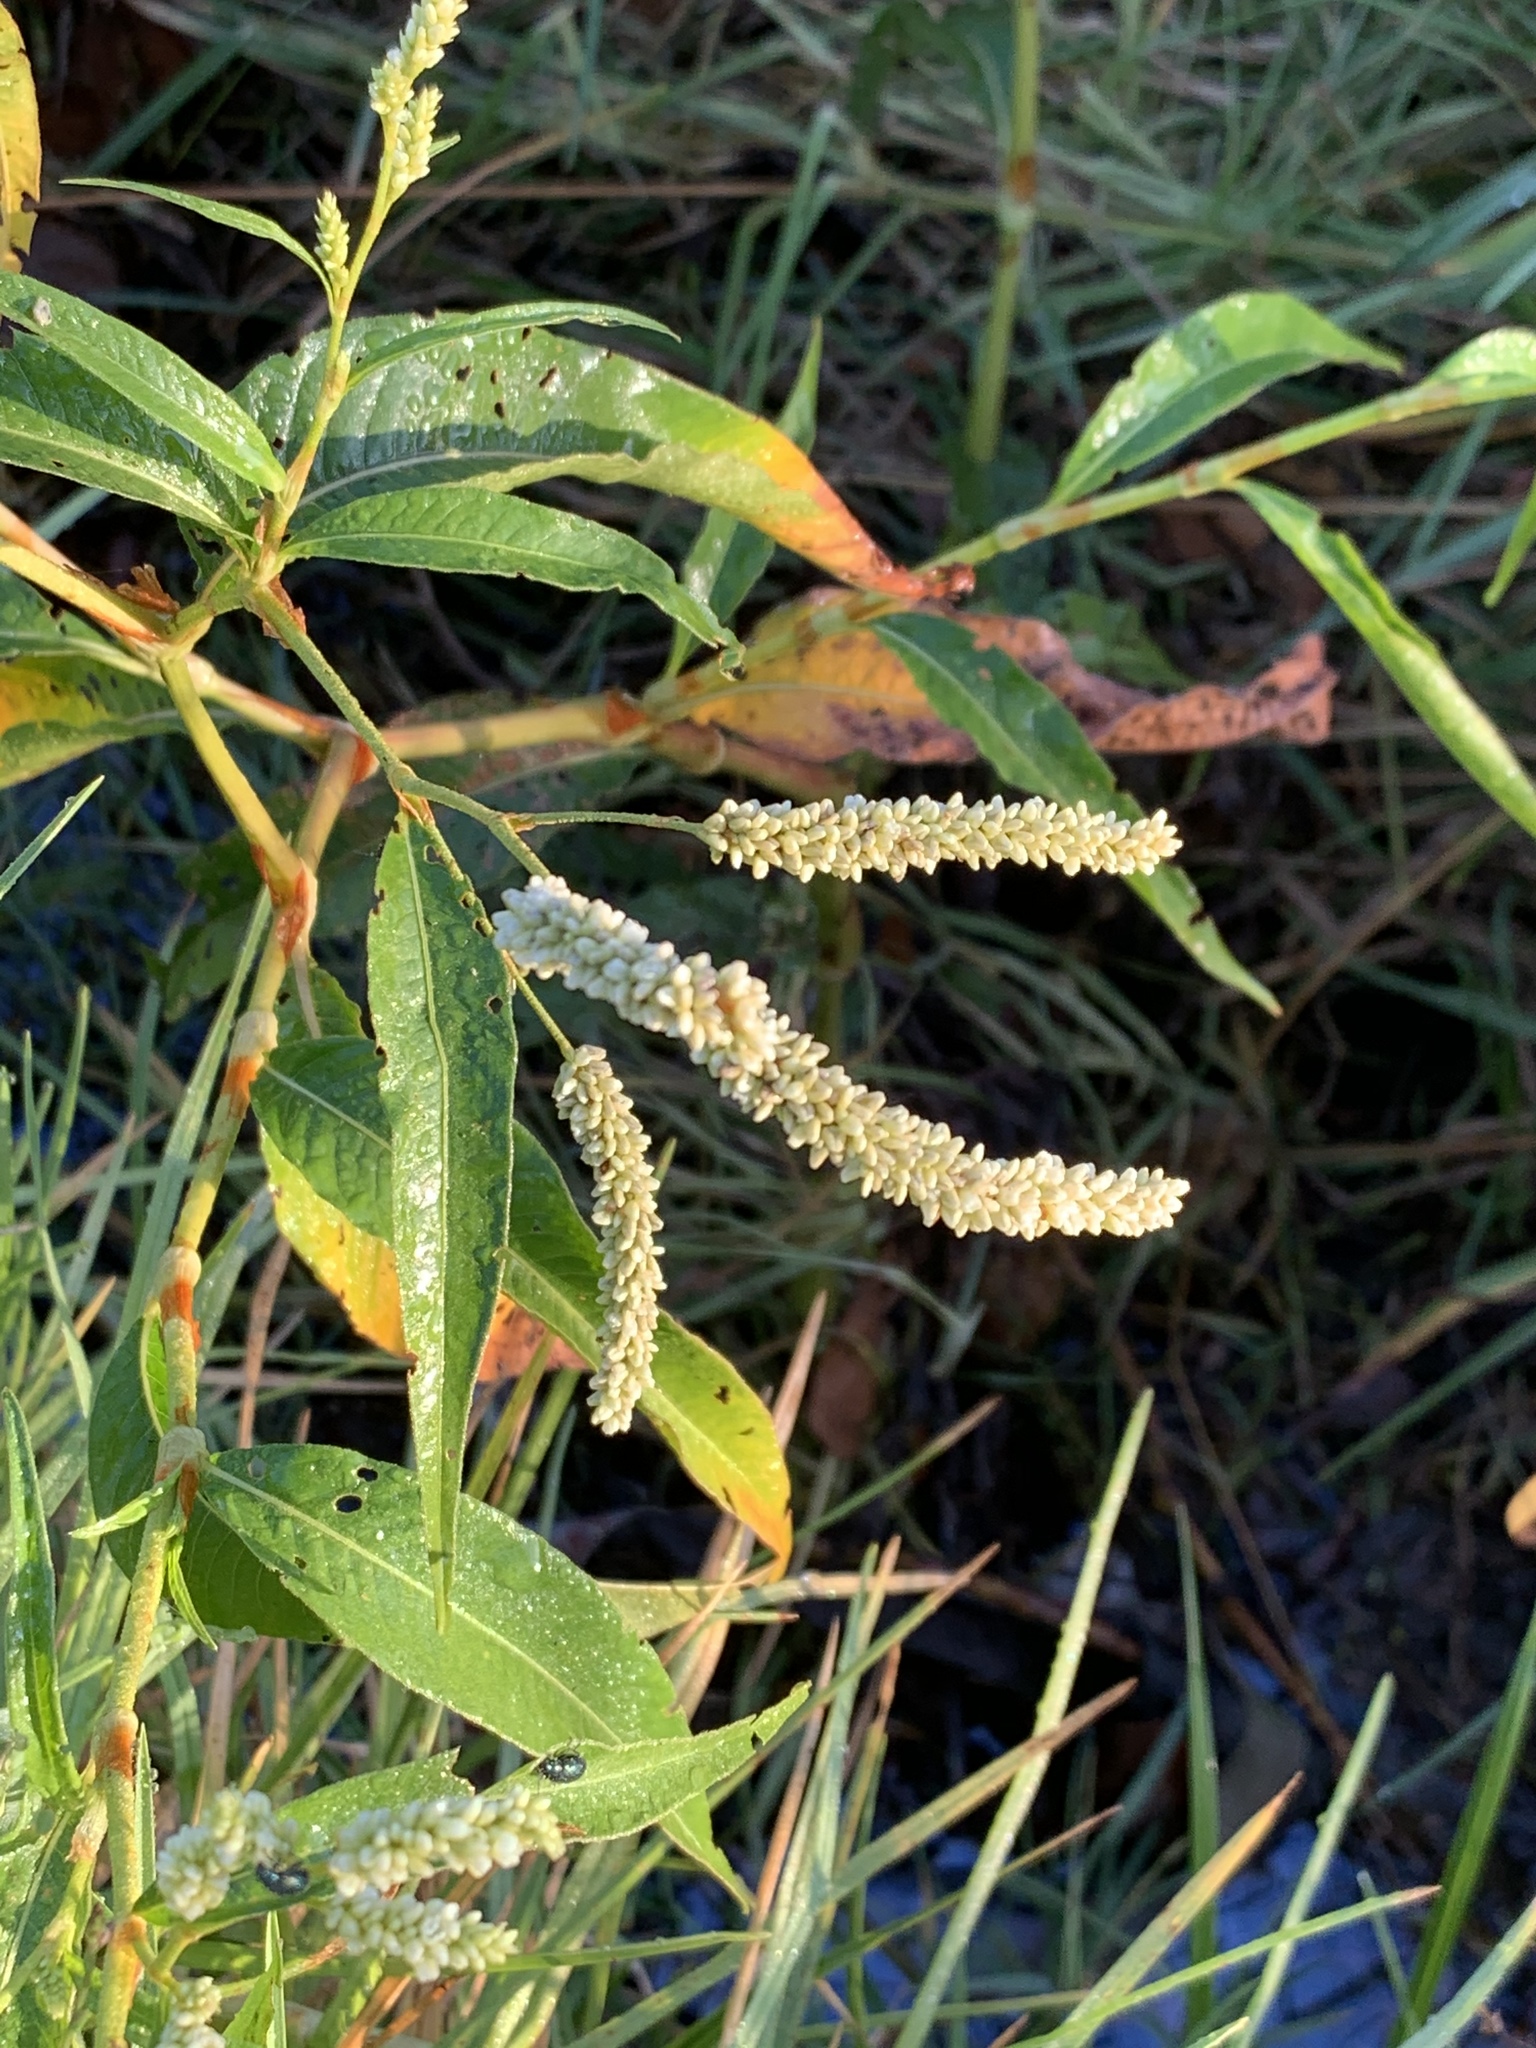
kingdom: Plantae
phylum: Tracheophyta
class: Magnoliopsida
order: Caryophyllales
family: Polygonaceae
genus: Persicaria
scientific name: Persicaria lapathifolia
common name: Curlytop knotweed
